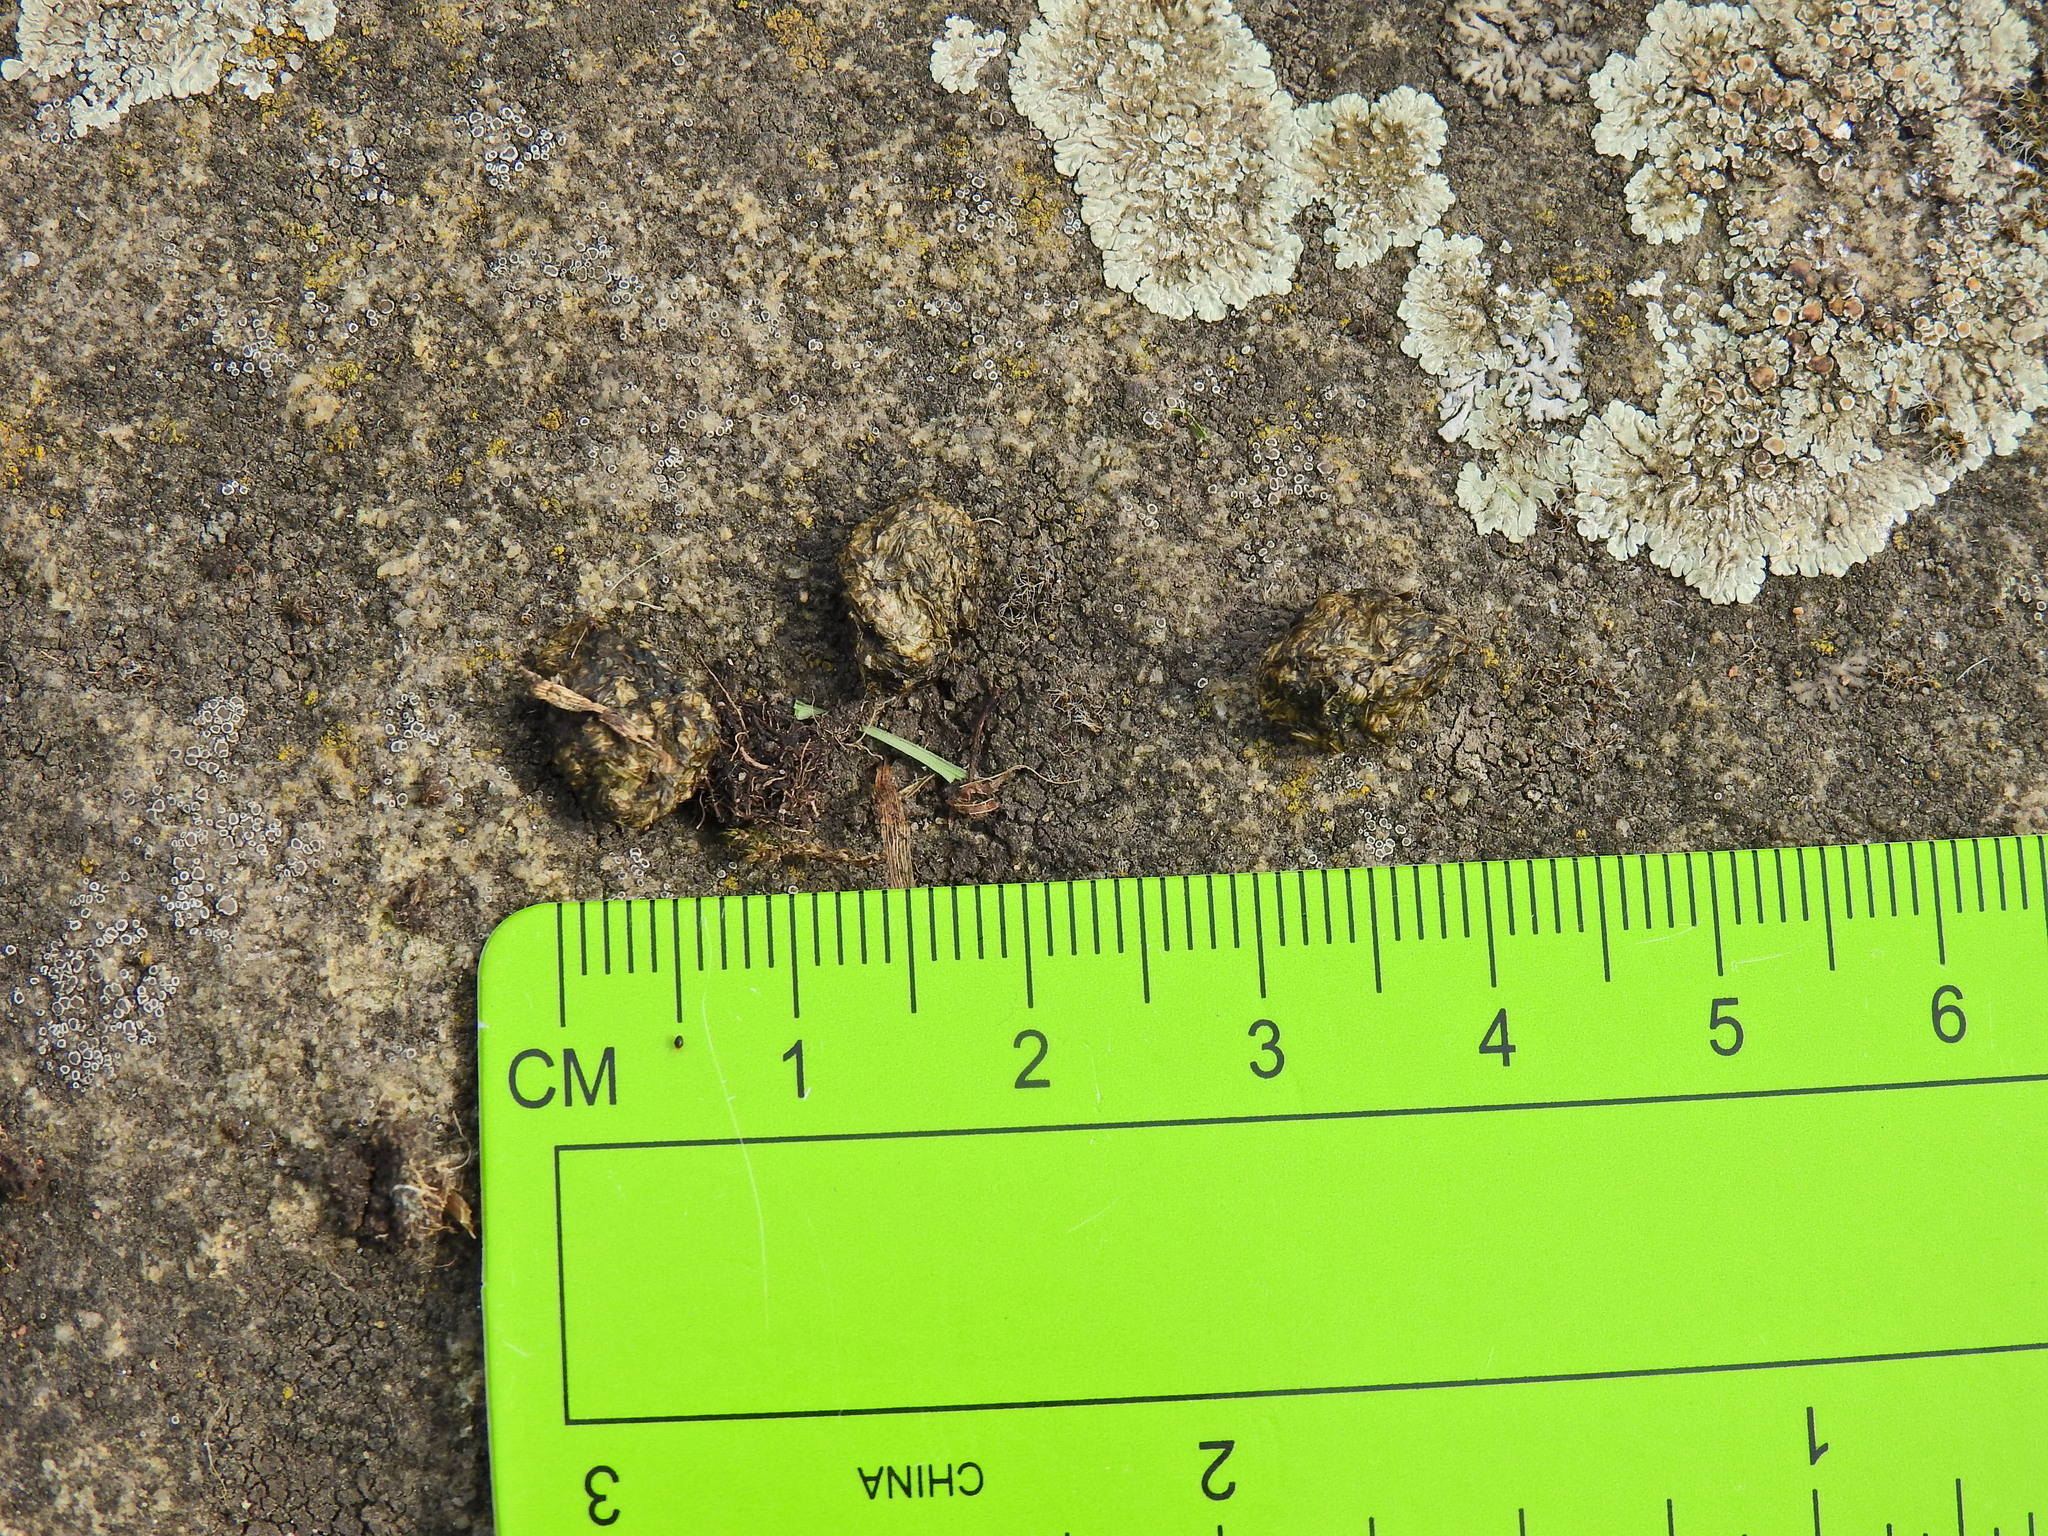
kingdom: Animalia
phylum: Chordata
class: Mammalia
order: Lagomorpha
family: Leporidae
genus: Oryctolagus
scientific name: Oryctolagus cuniculus
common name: European rabbit
